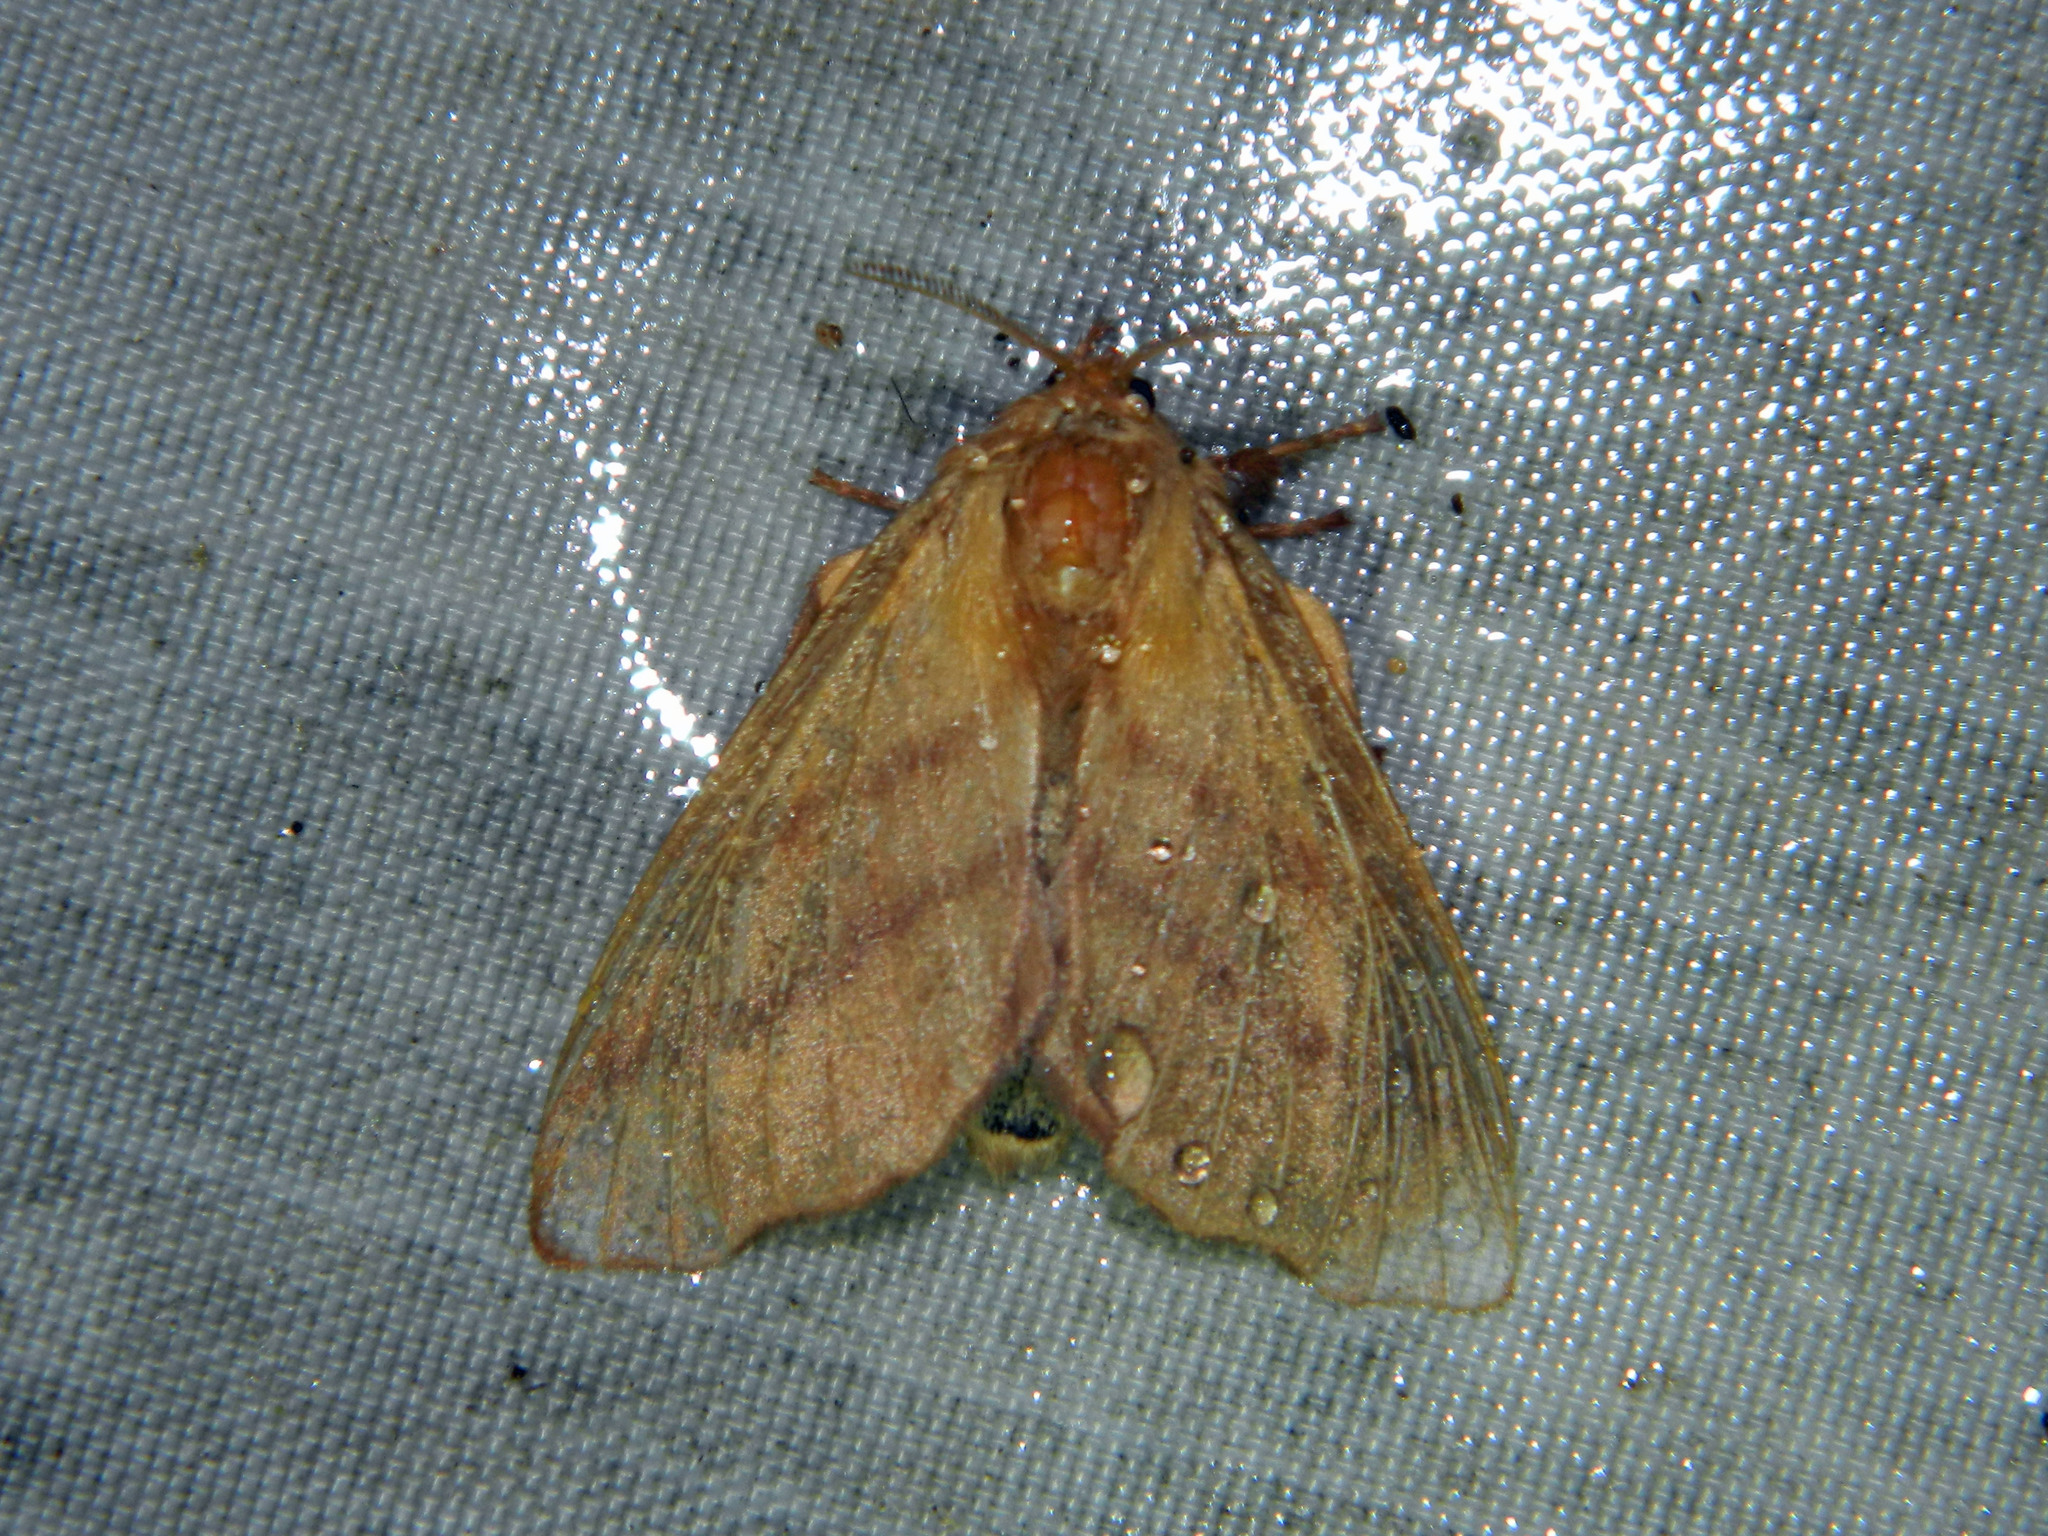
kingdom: Animalia
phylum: Arthropoda
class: Insecta
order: Lepidoptera
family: Lasiocampidae
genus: Malacosoma
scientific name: Malacosoma disstria
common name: Forest tent caterpillar
